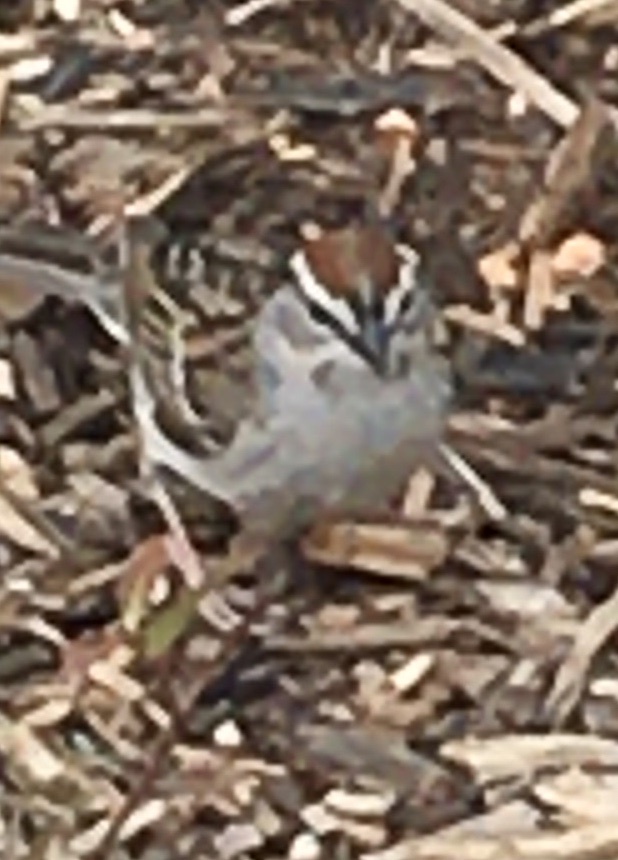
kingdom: Animalia
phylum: Chordata
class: Aves
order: Passeriformes
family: Passerellidae
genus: Spizella
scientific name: Spizella passerina
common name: Chipping sparrow
